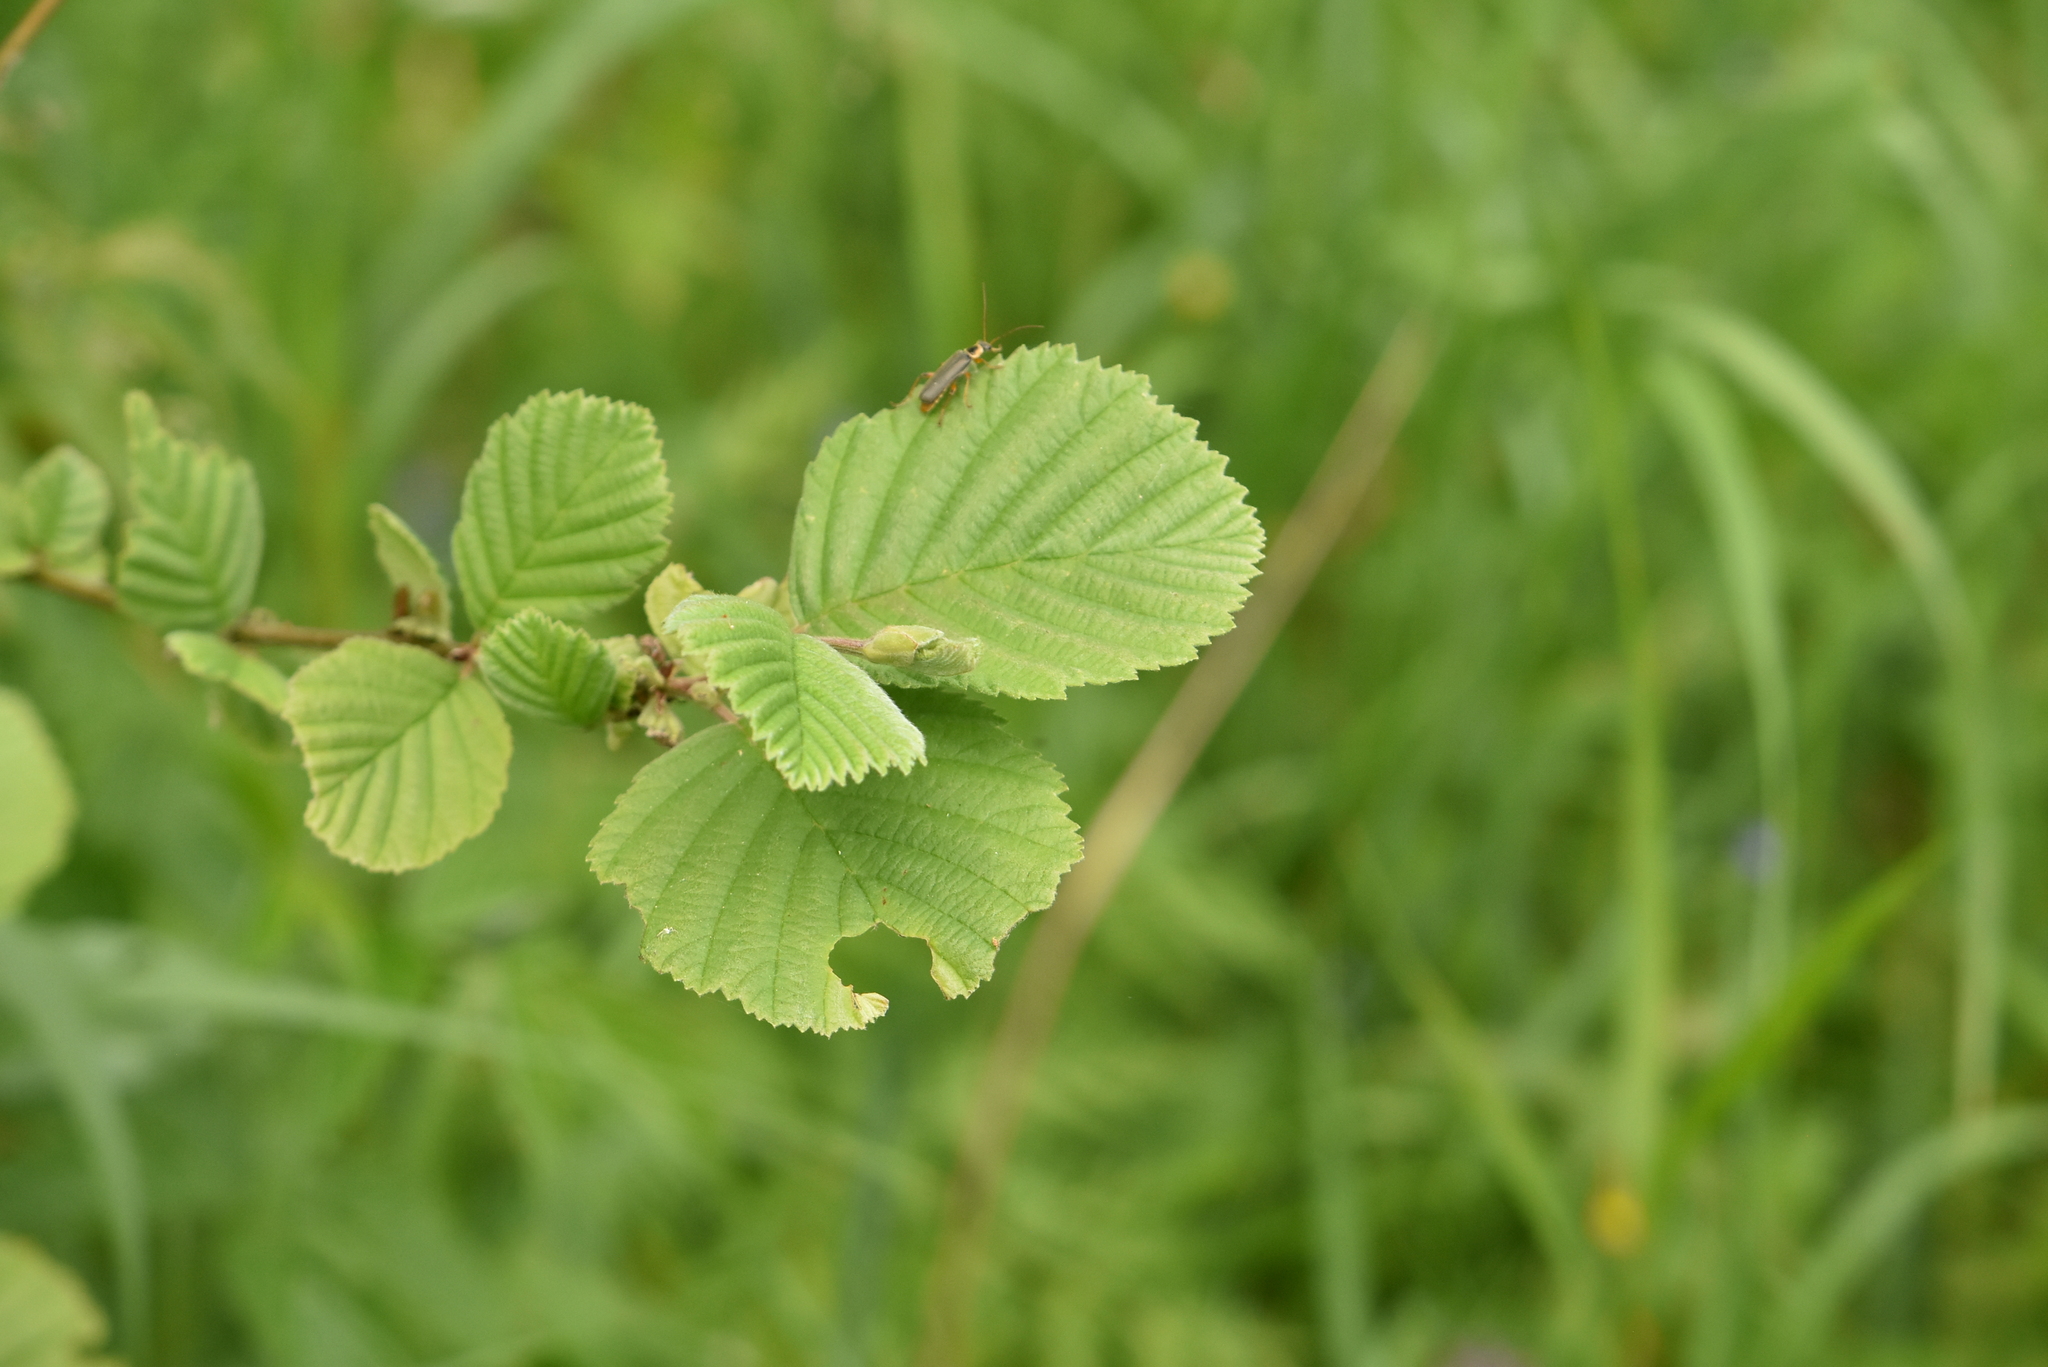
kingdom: Plantae
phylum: Tracheophyta
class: Magnoliopsida
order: Fagales
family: Betulaceae
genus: Alnus
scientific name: Alnus incana
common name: Grey alder
